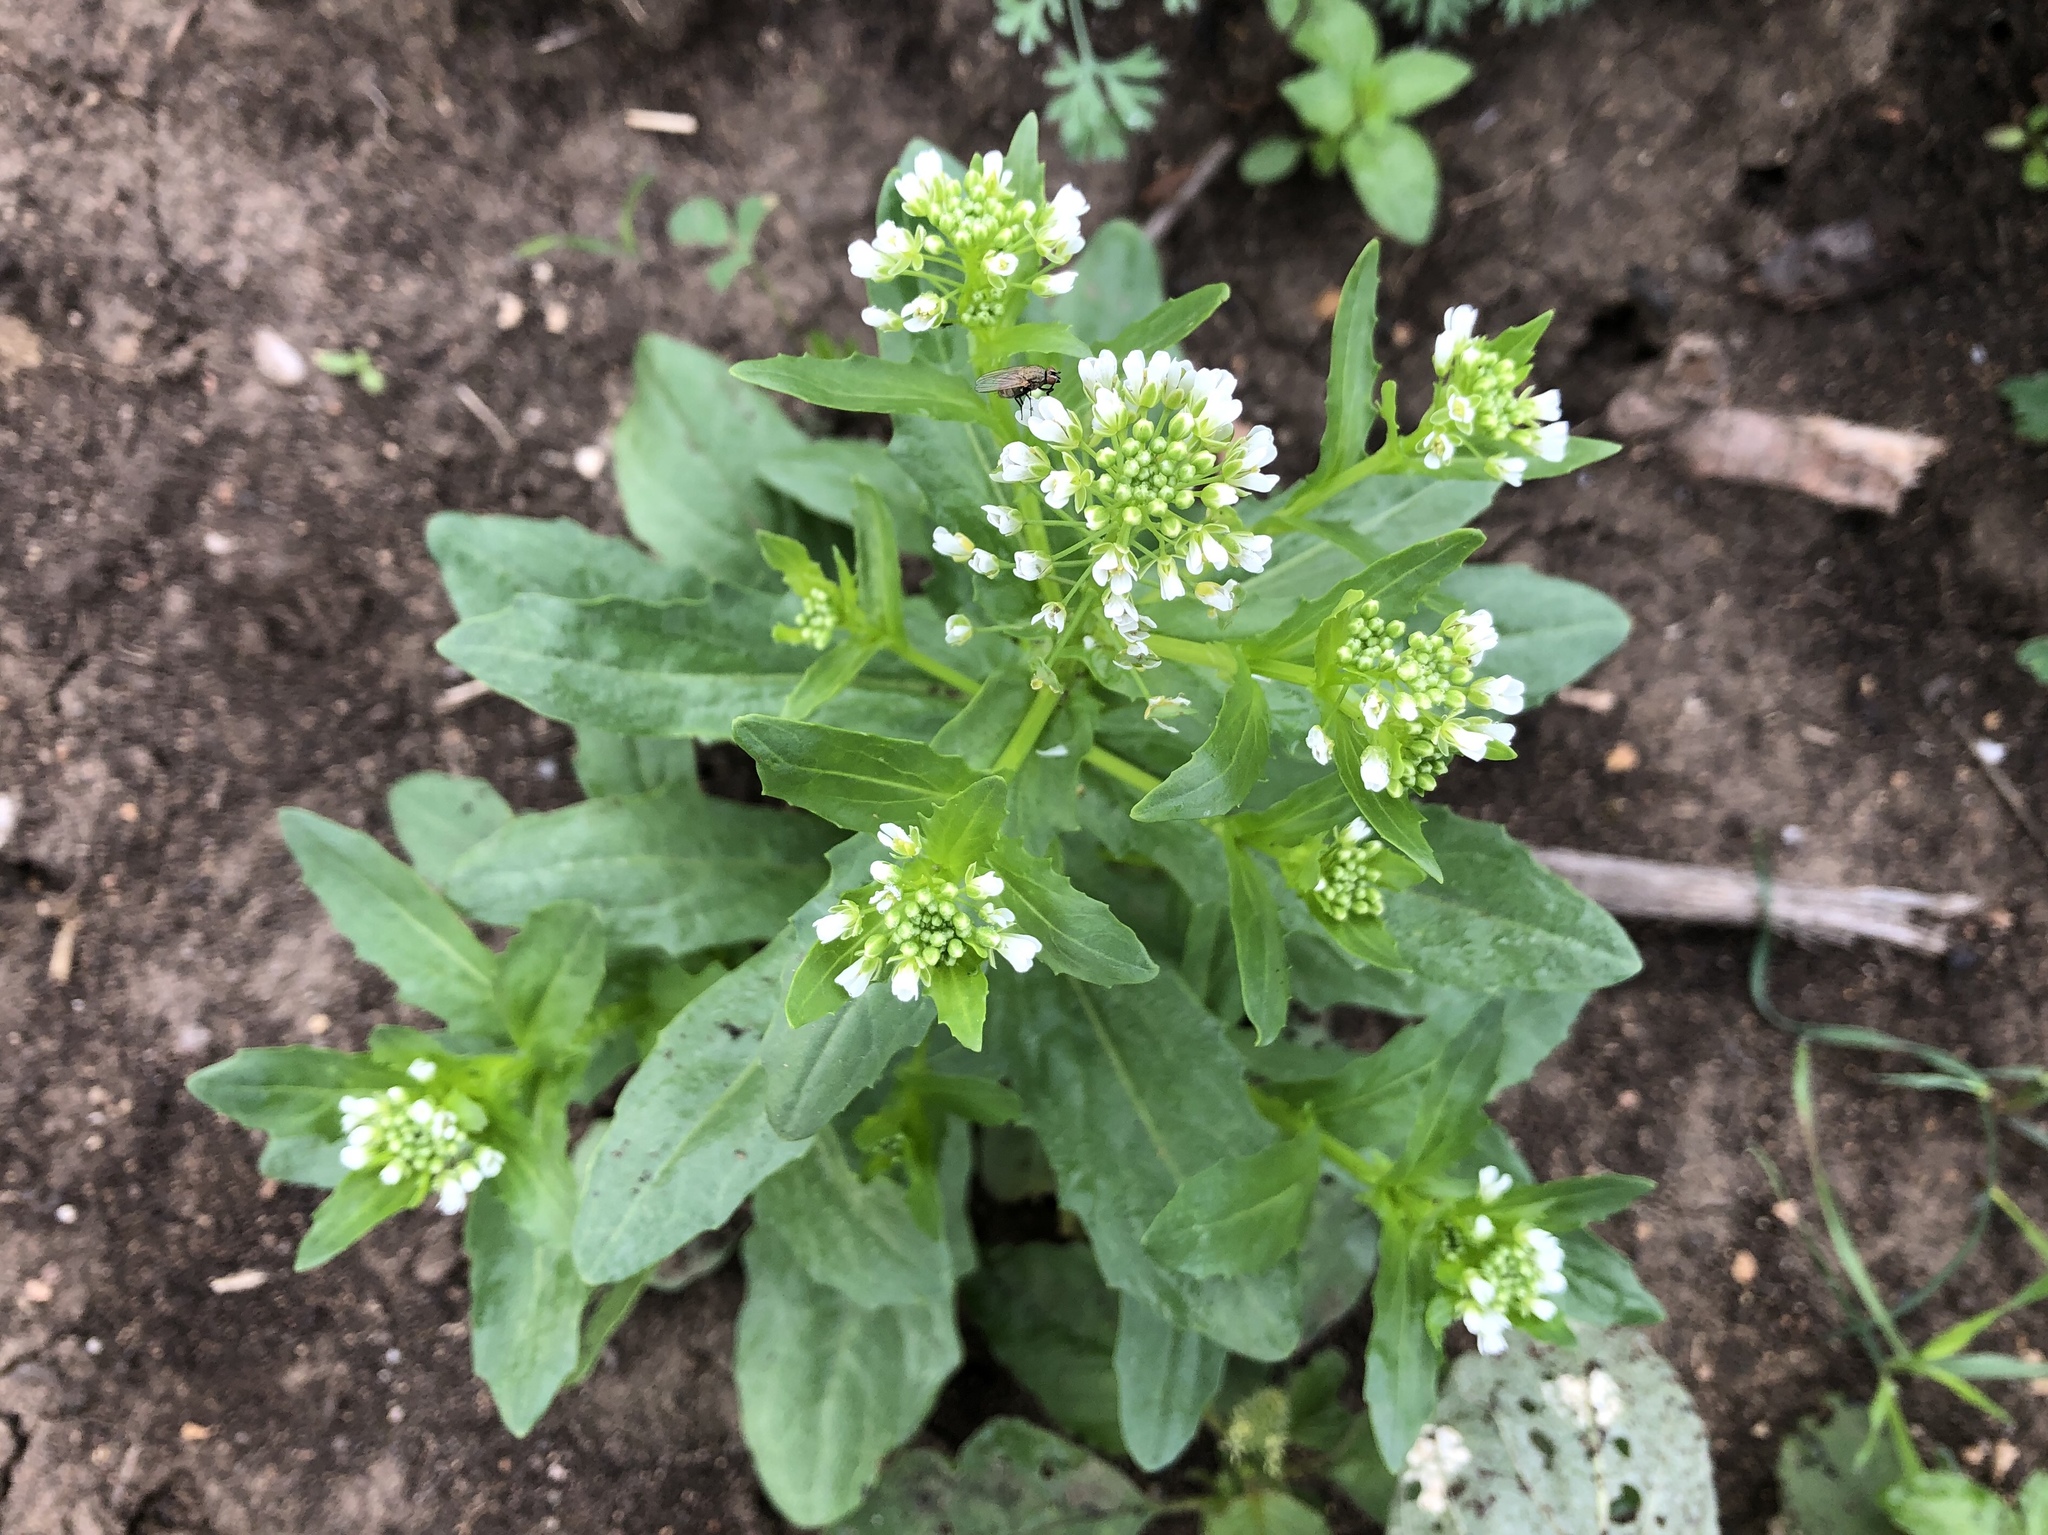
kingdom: Plantae
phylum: Tracheophyta
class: Magnoliopsida
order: Brassicales
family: Brassicaceae
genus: Thlaspi
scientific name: Thlaspi arvense
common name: Field pennycress
